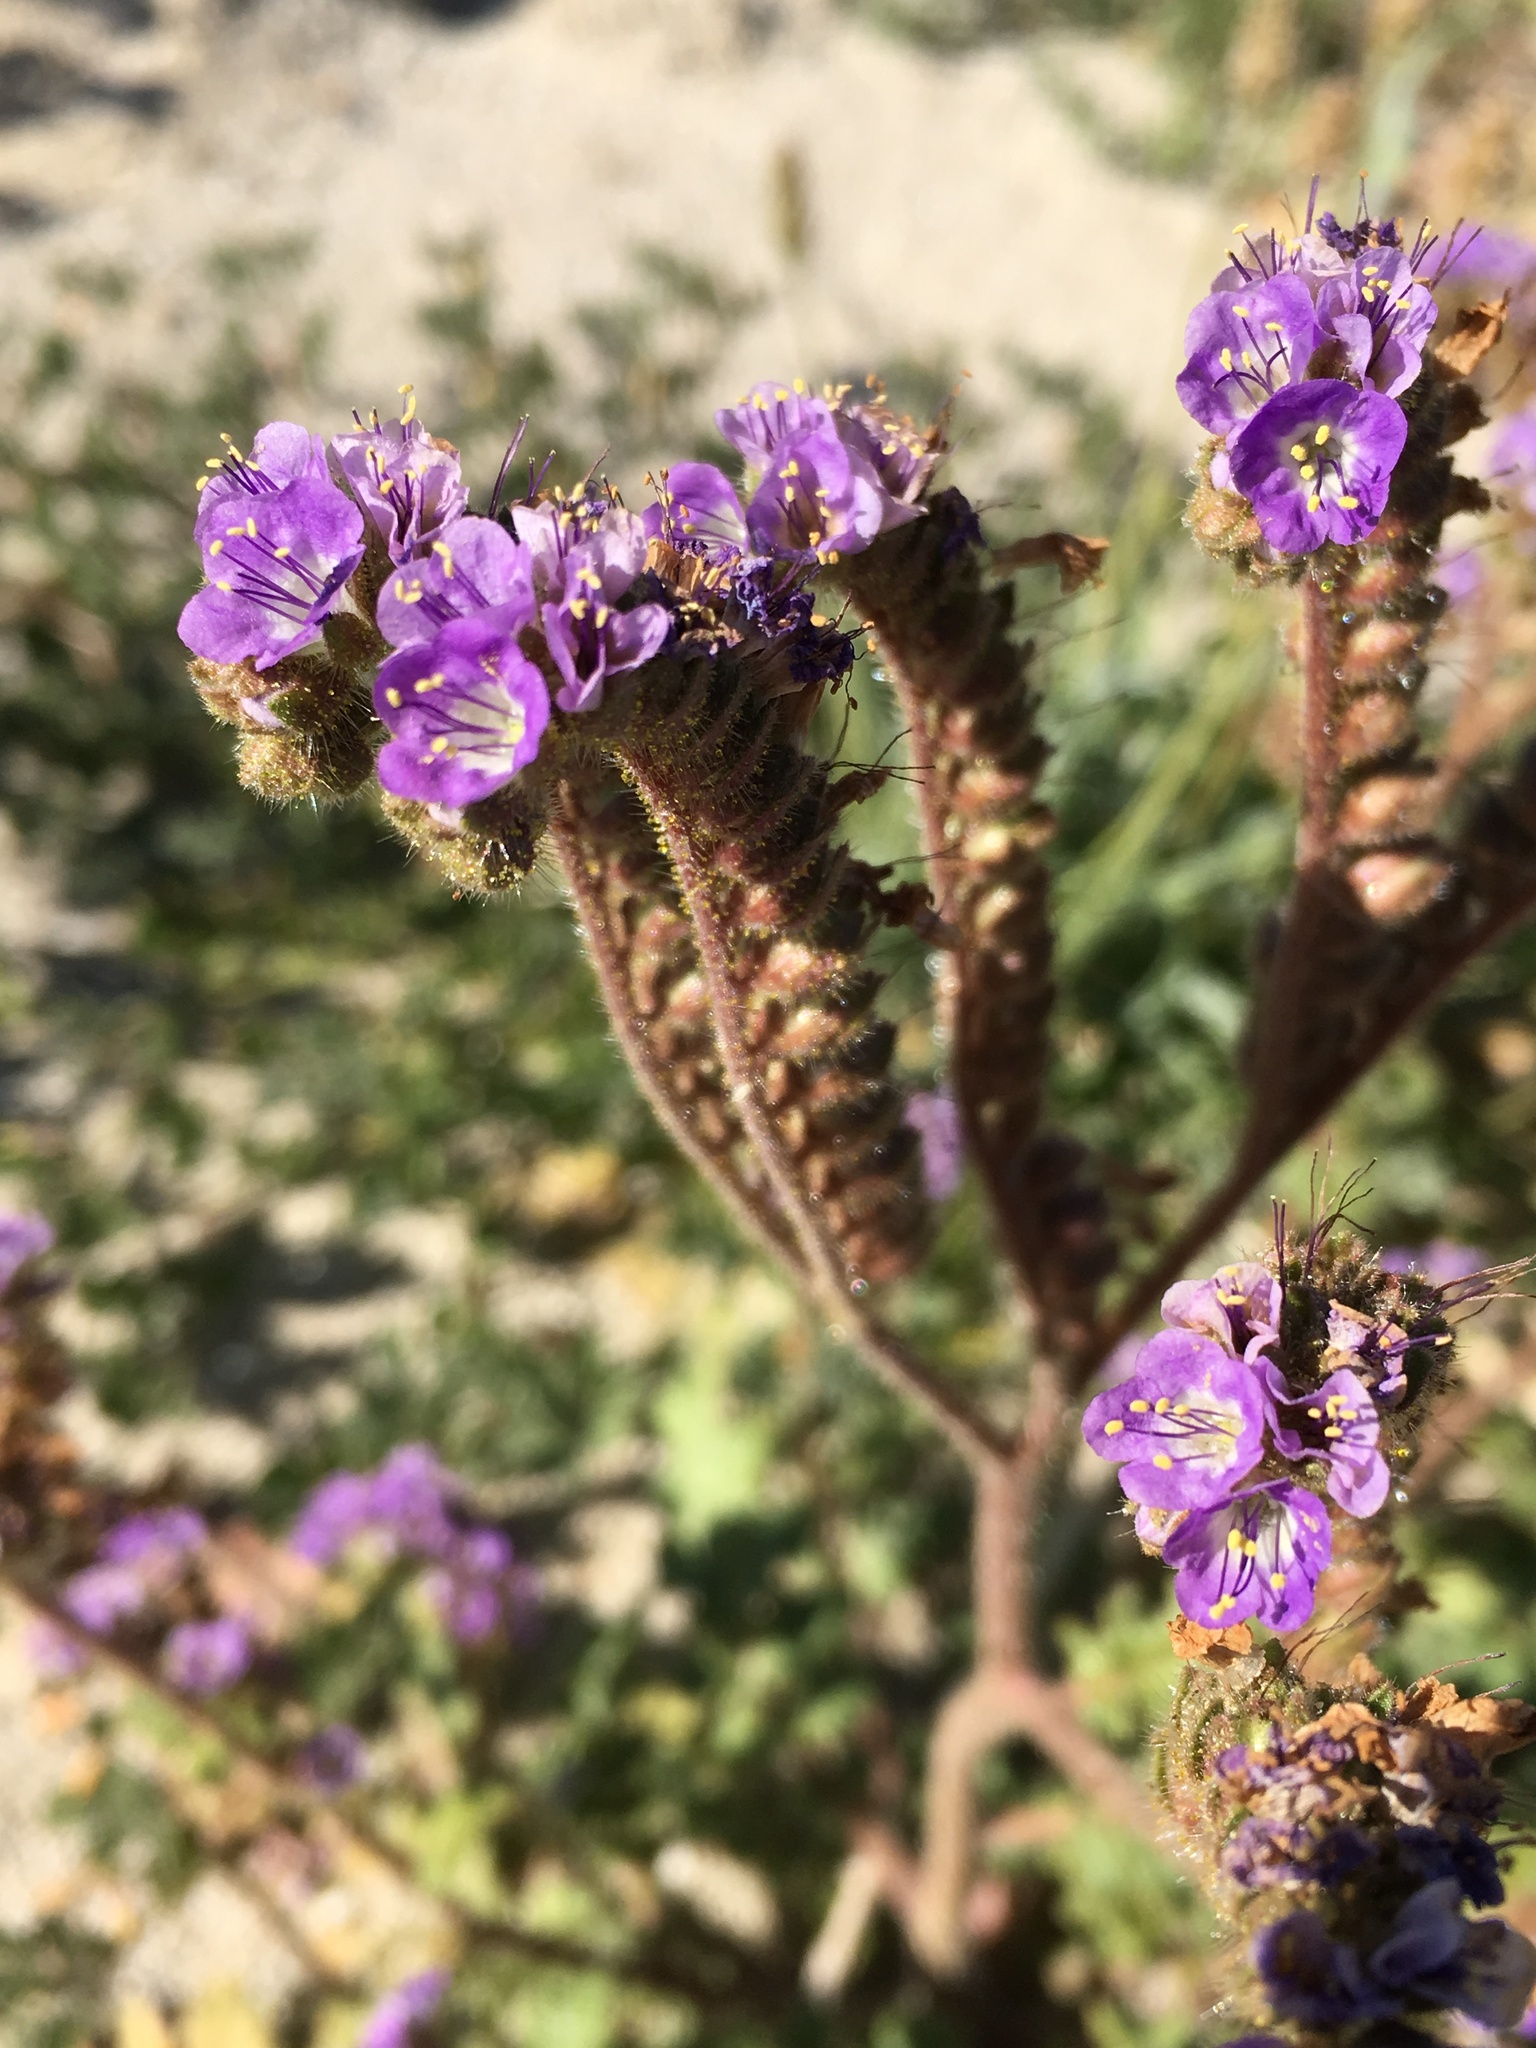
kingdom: Plantae
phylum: Tracheophyta
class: Magnoliopsida
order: Boraginales
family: Hydrophyllaceae
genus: Phacelia
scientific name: Phacelia crenulata
